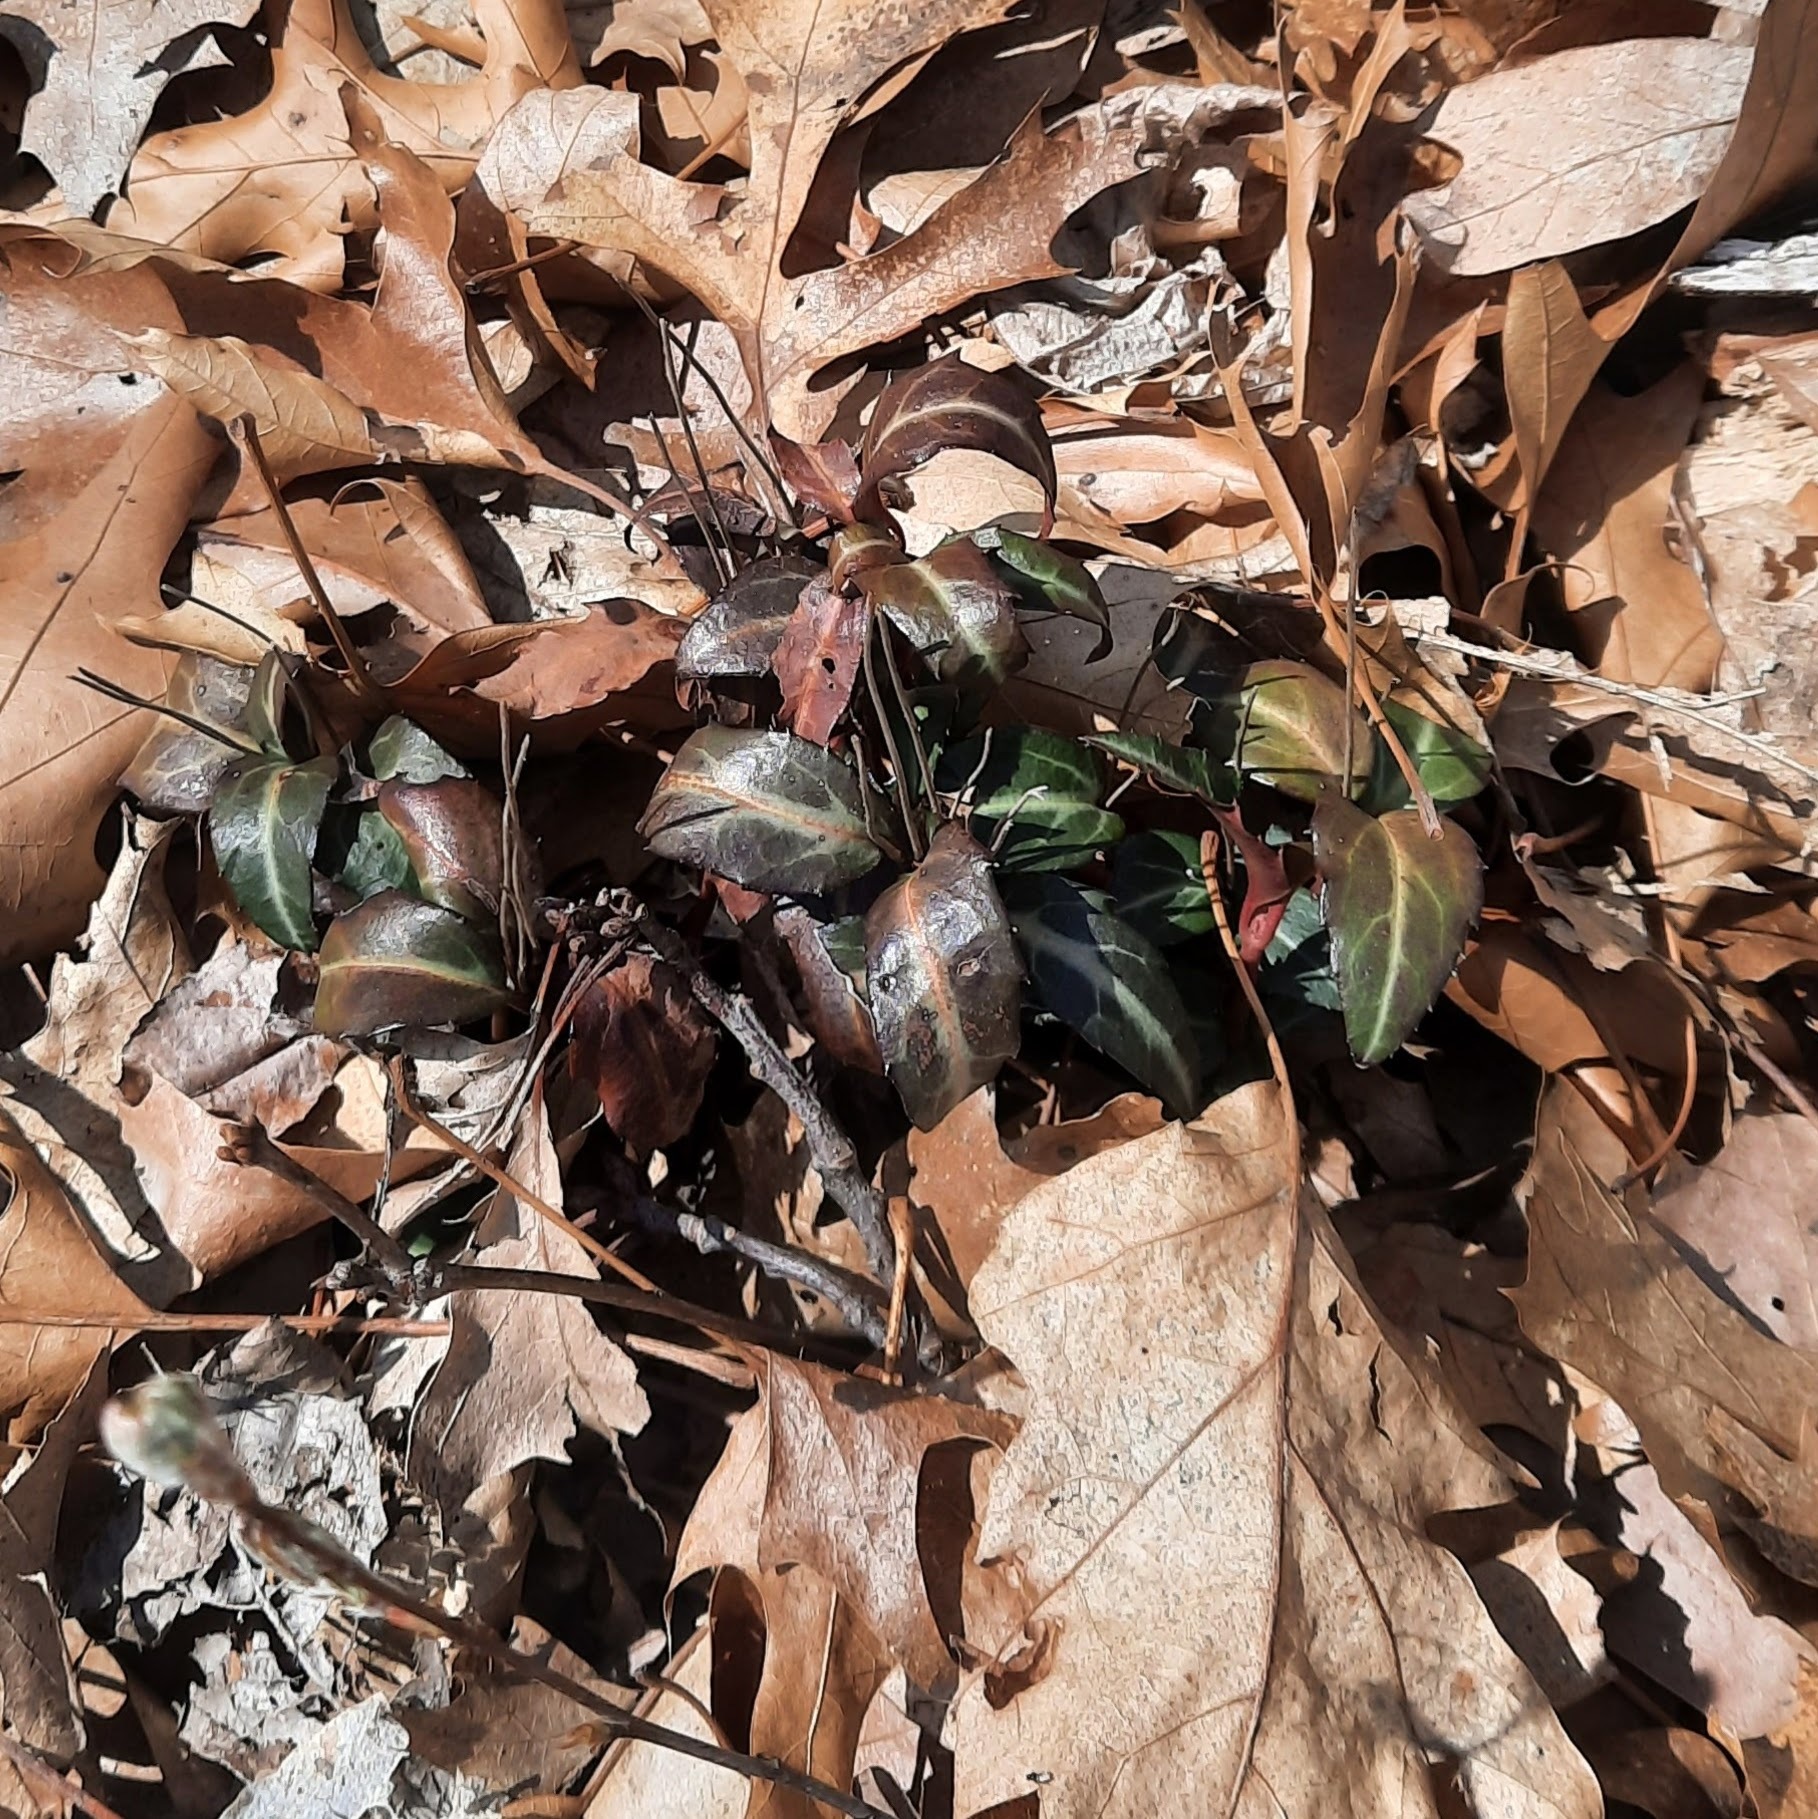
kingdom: Plantae
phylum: Tracheophyta
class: Magnoliopsida
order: Ericales
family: Ericaceae
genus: Chimaphila
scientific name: Chimaphila maculata
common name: Spotted pipsissewa
